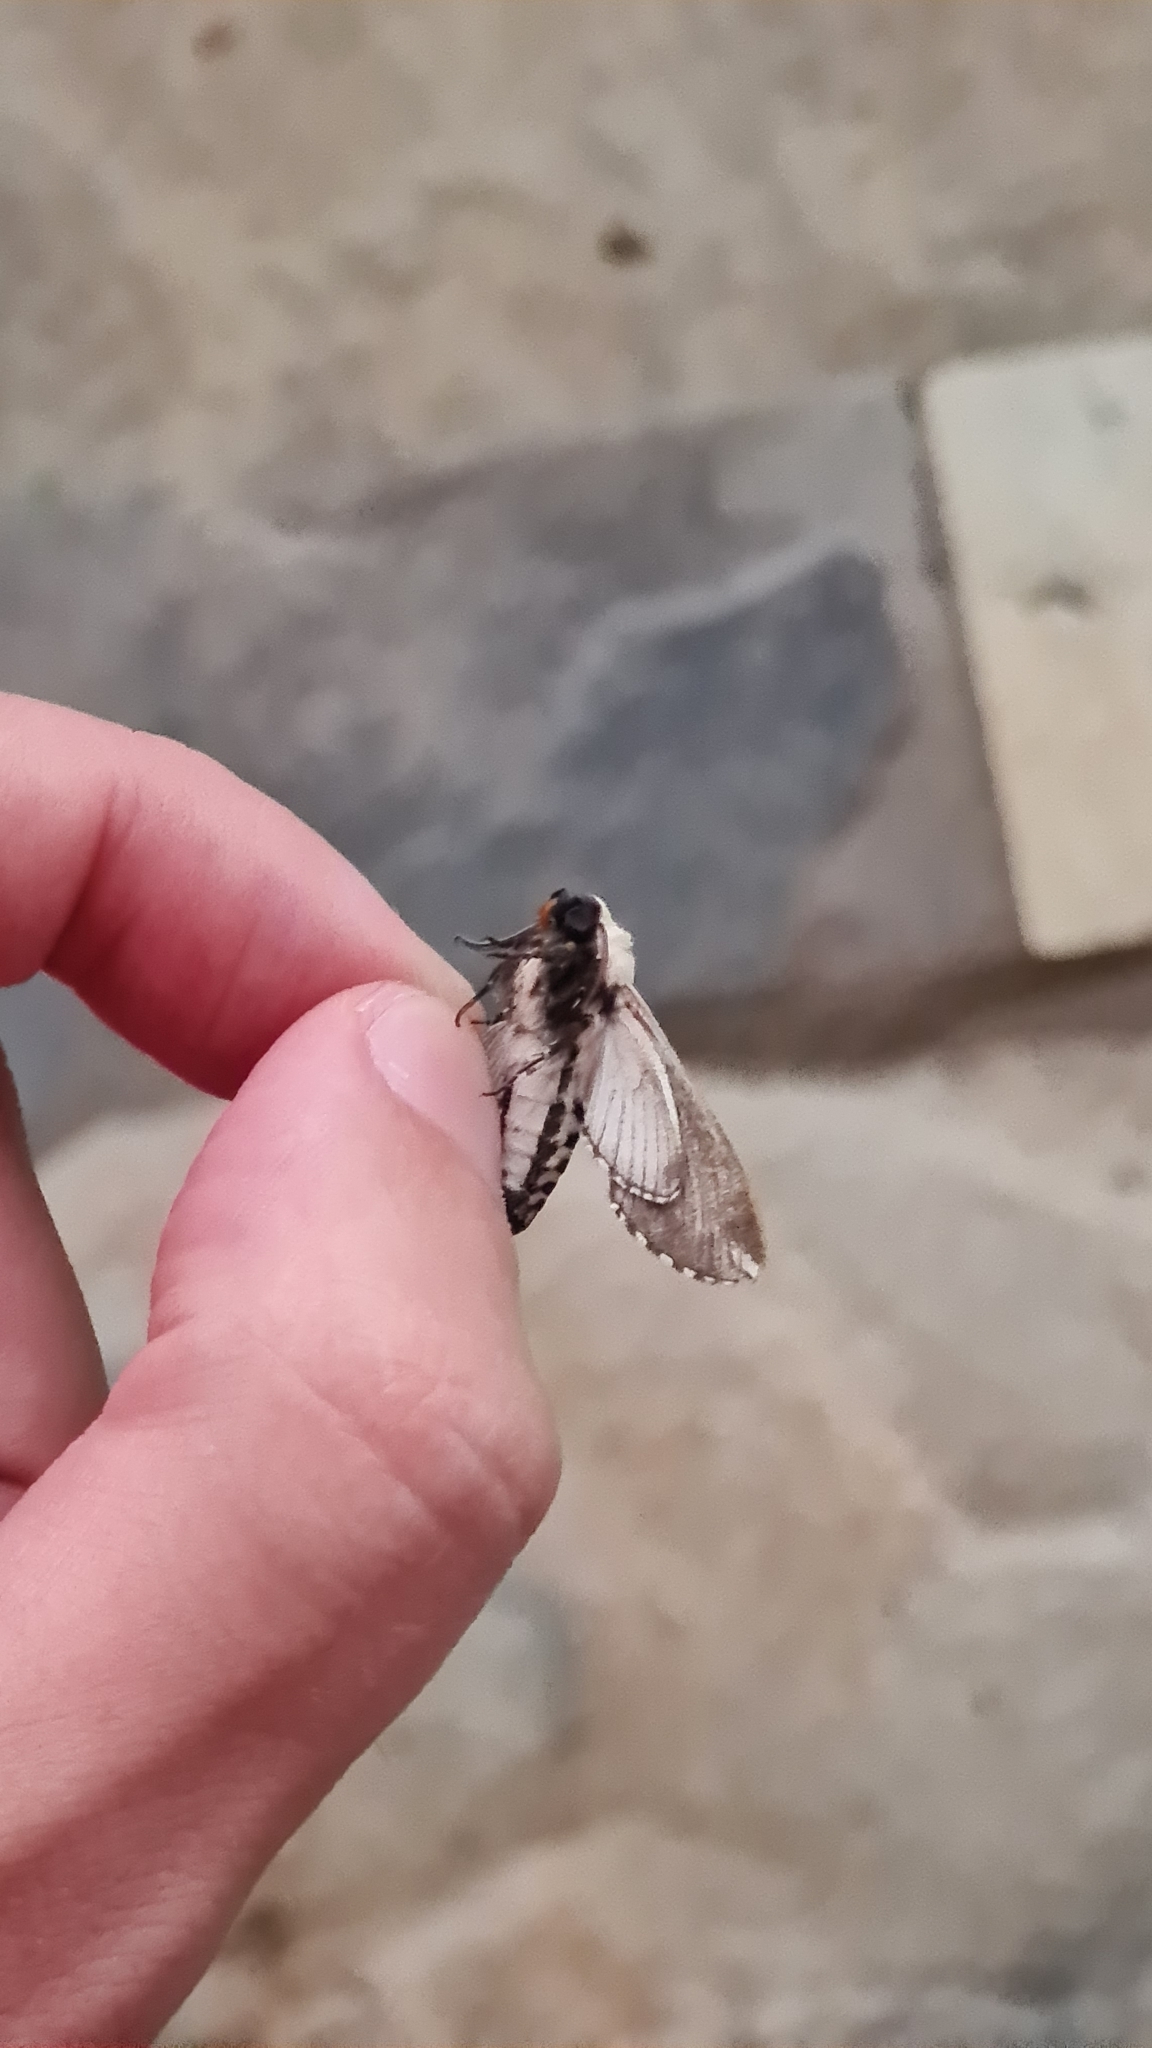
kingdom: Animalia
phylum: Arthropoda
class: Insecta
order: Lepidoptera
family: Sphingidae
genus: Neogene
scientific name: Neogene dynaeus
